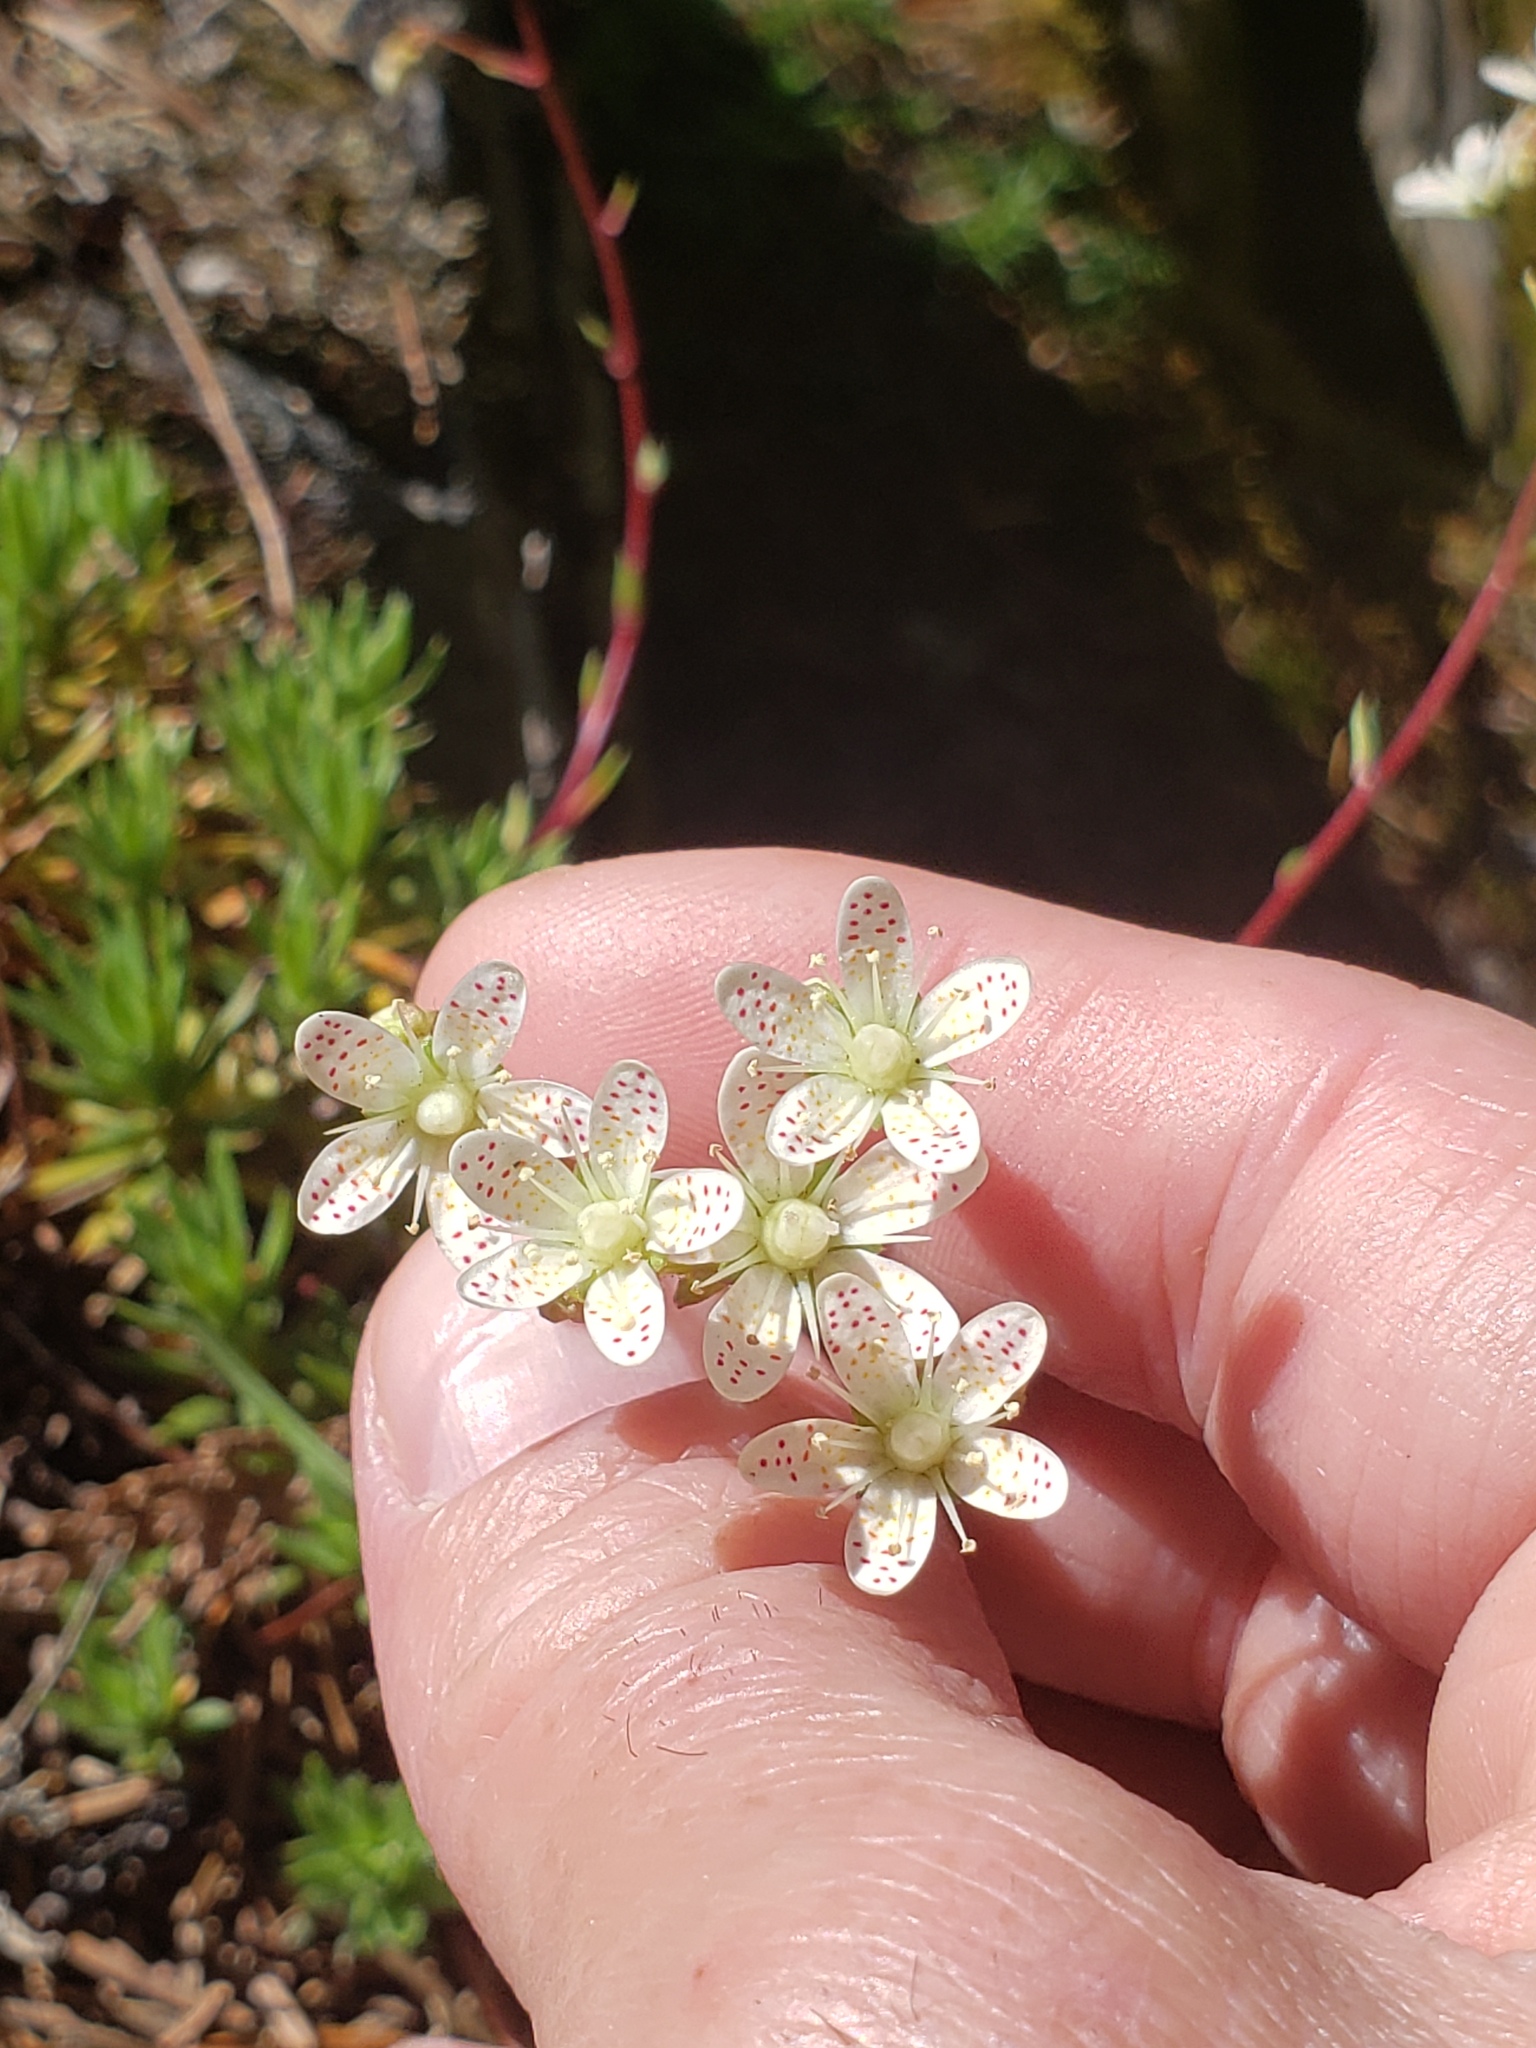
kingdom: Plantae
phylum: Tracheophyta
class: Magnoliopsida
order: Saxifragales
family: Saxifragaceae
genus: Saxifraga
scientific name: Saxifraga bronchialis
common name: Matted saxifrage
